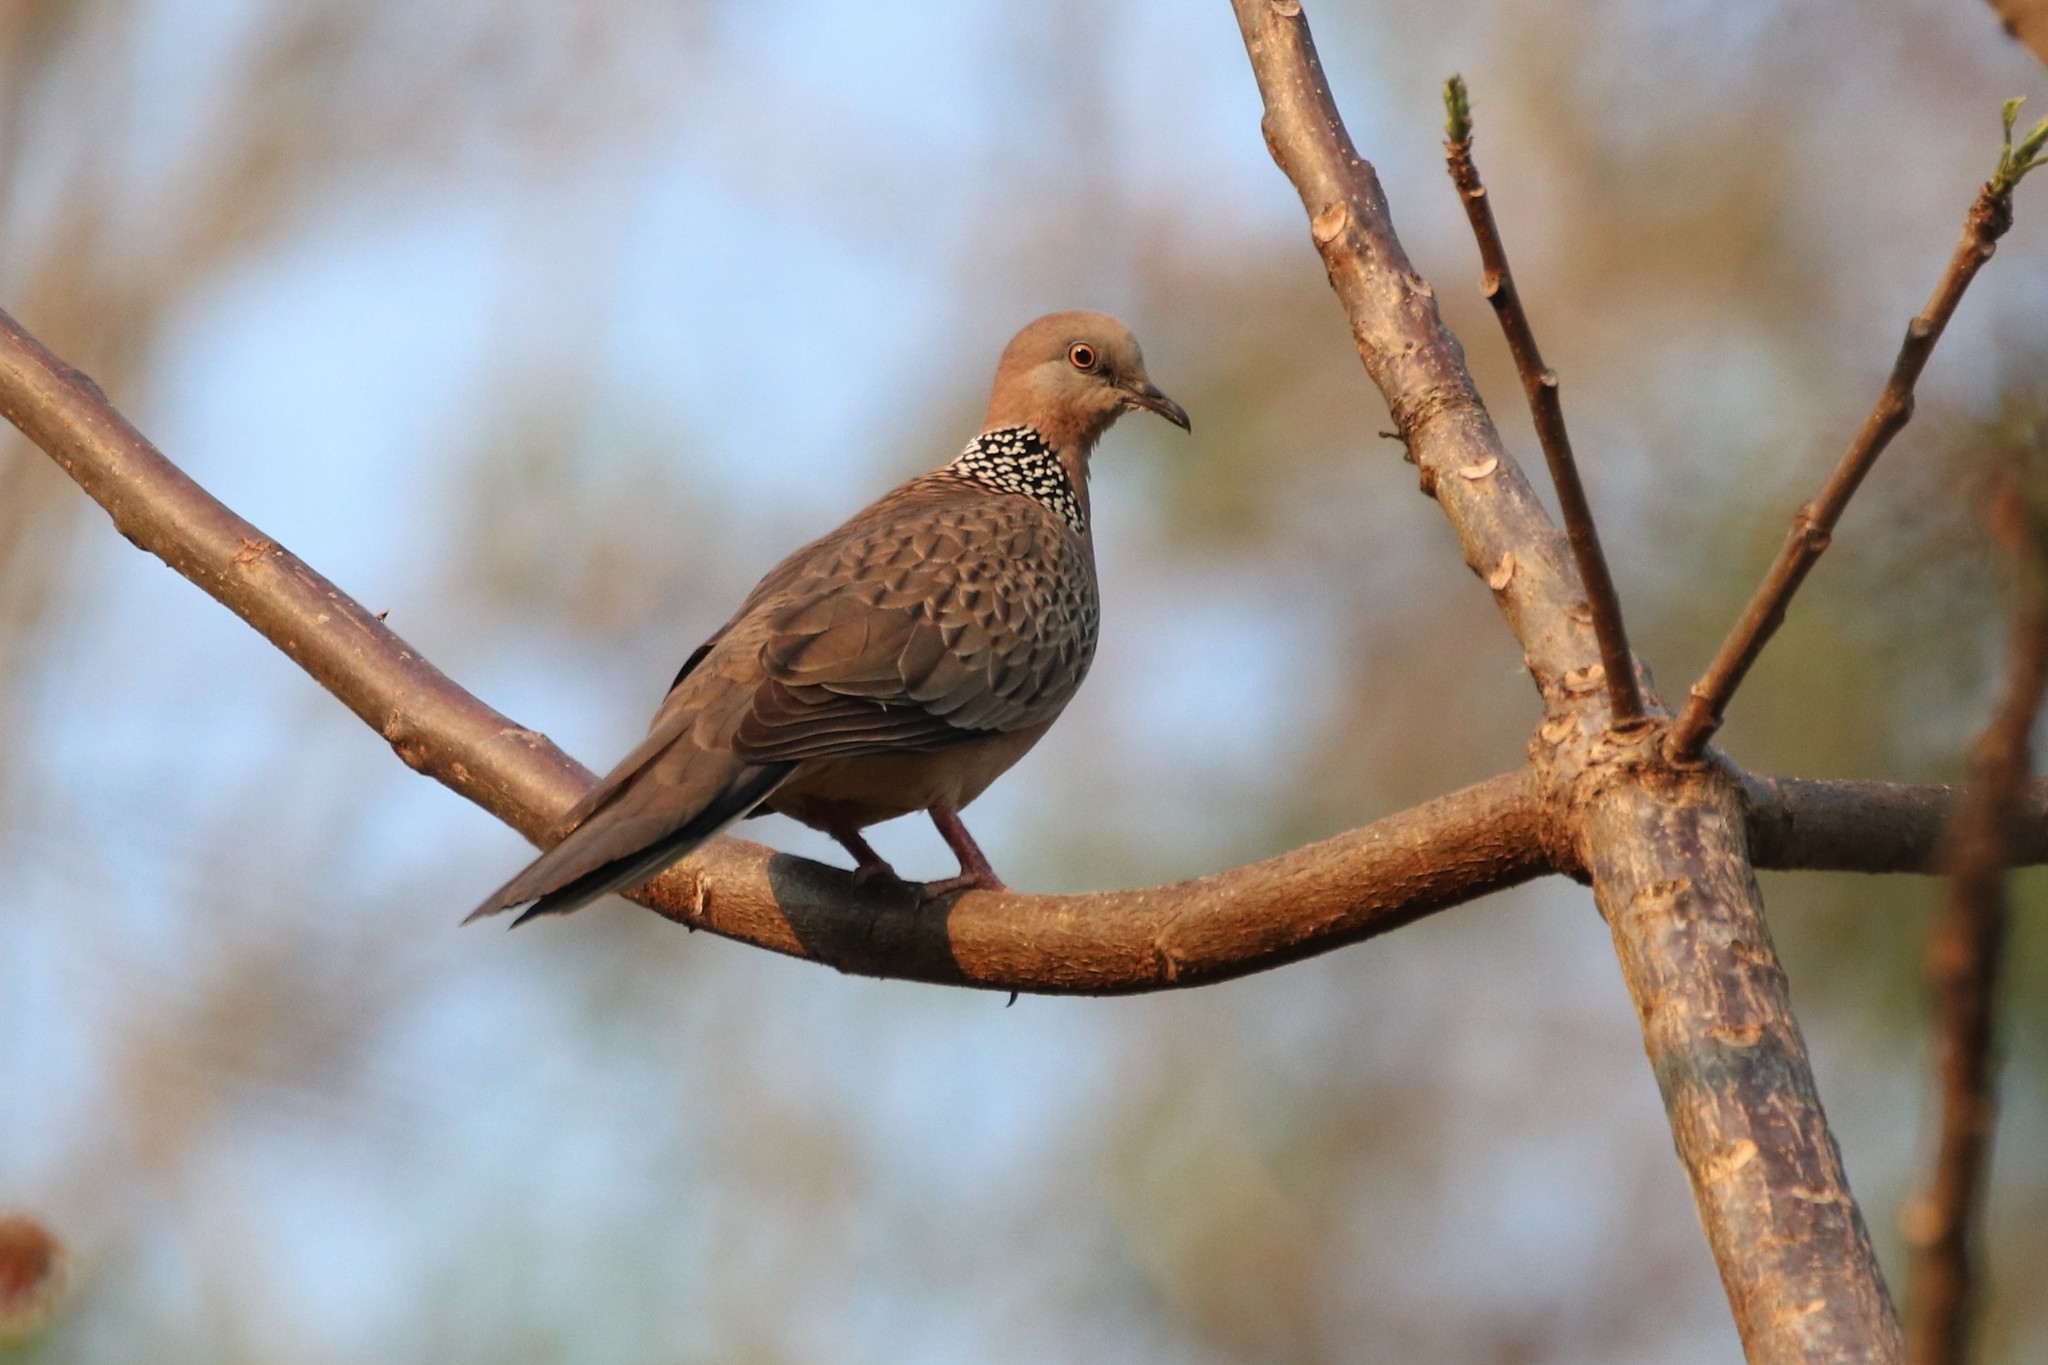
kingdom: Animalia
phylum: Chordata
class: Aves
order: Columbiformes
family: Columbidae
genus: Spilopelia
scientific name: Spilopelia chinensis
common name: Spotted dove
